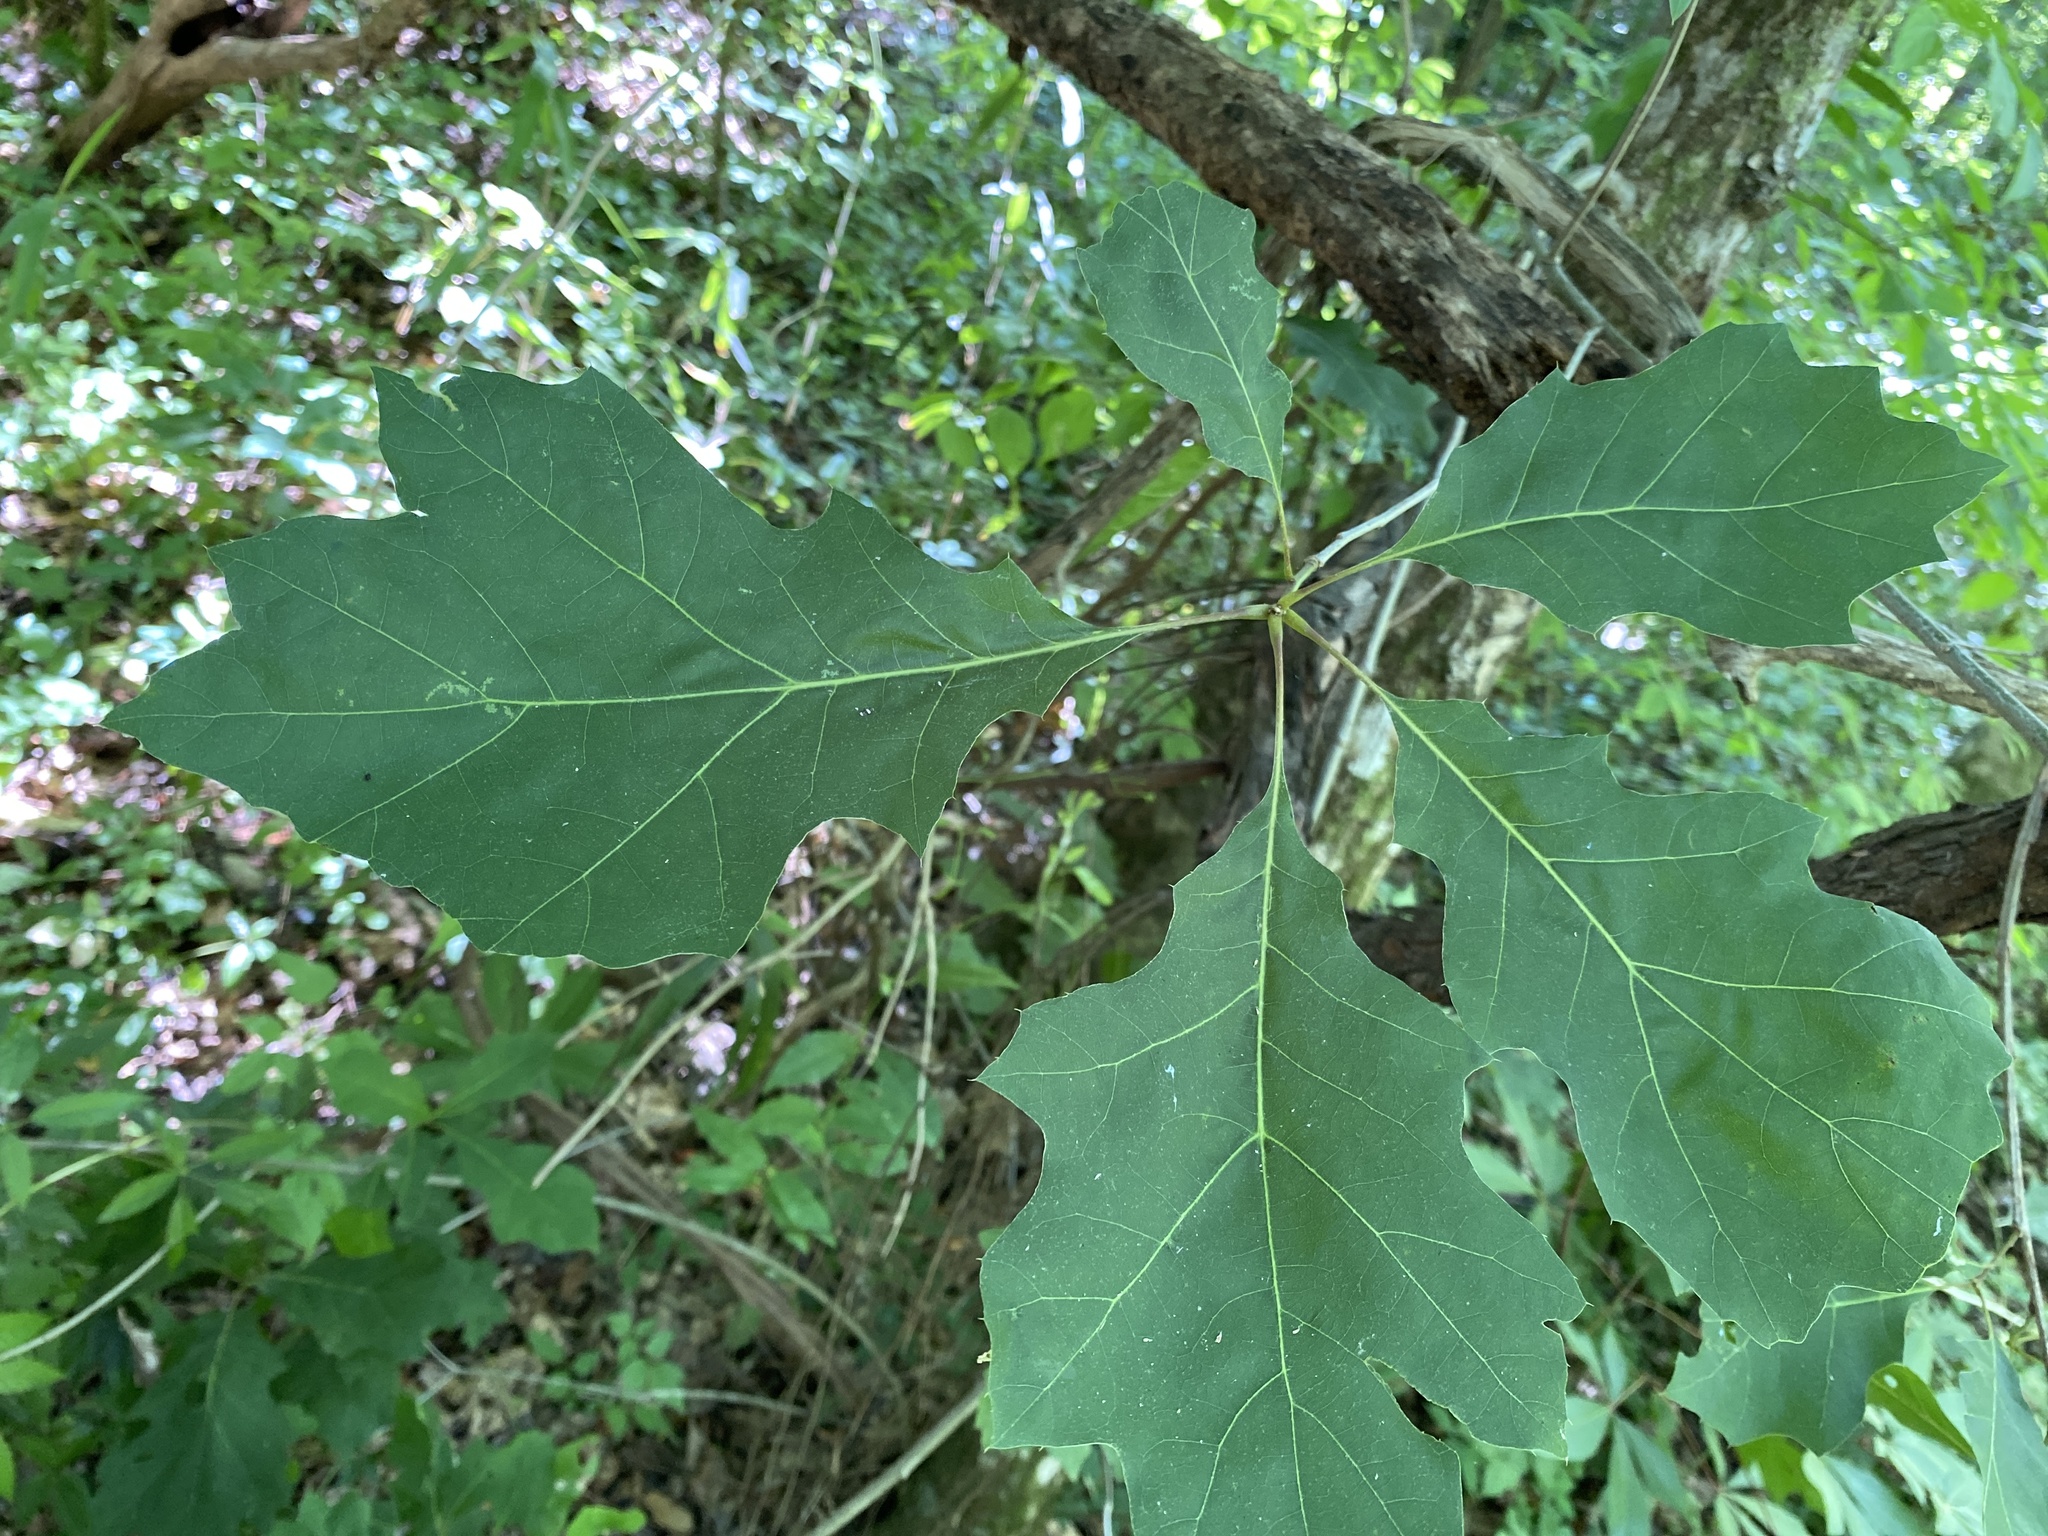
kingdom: Plantae
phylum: Tracheophyta
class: Magnoliopsida
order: Fagales
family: Fagaceae
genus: Quercus
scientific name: Quercus rubra
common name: Red oak
